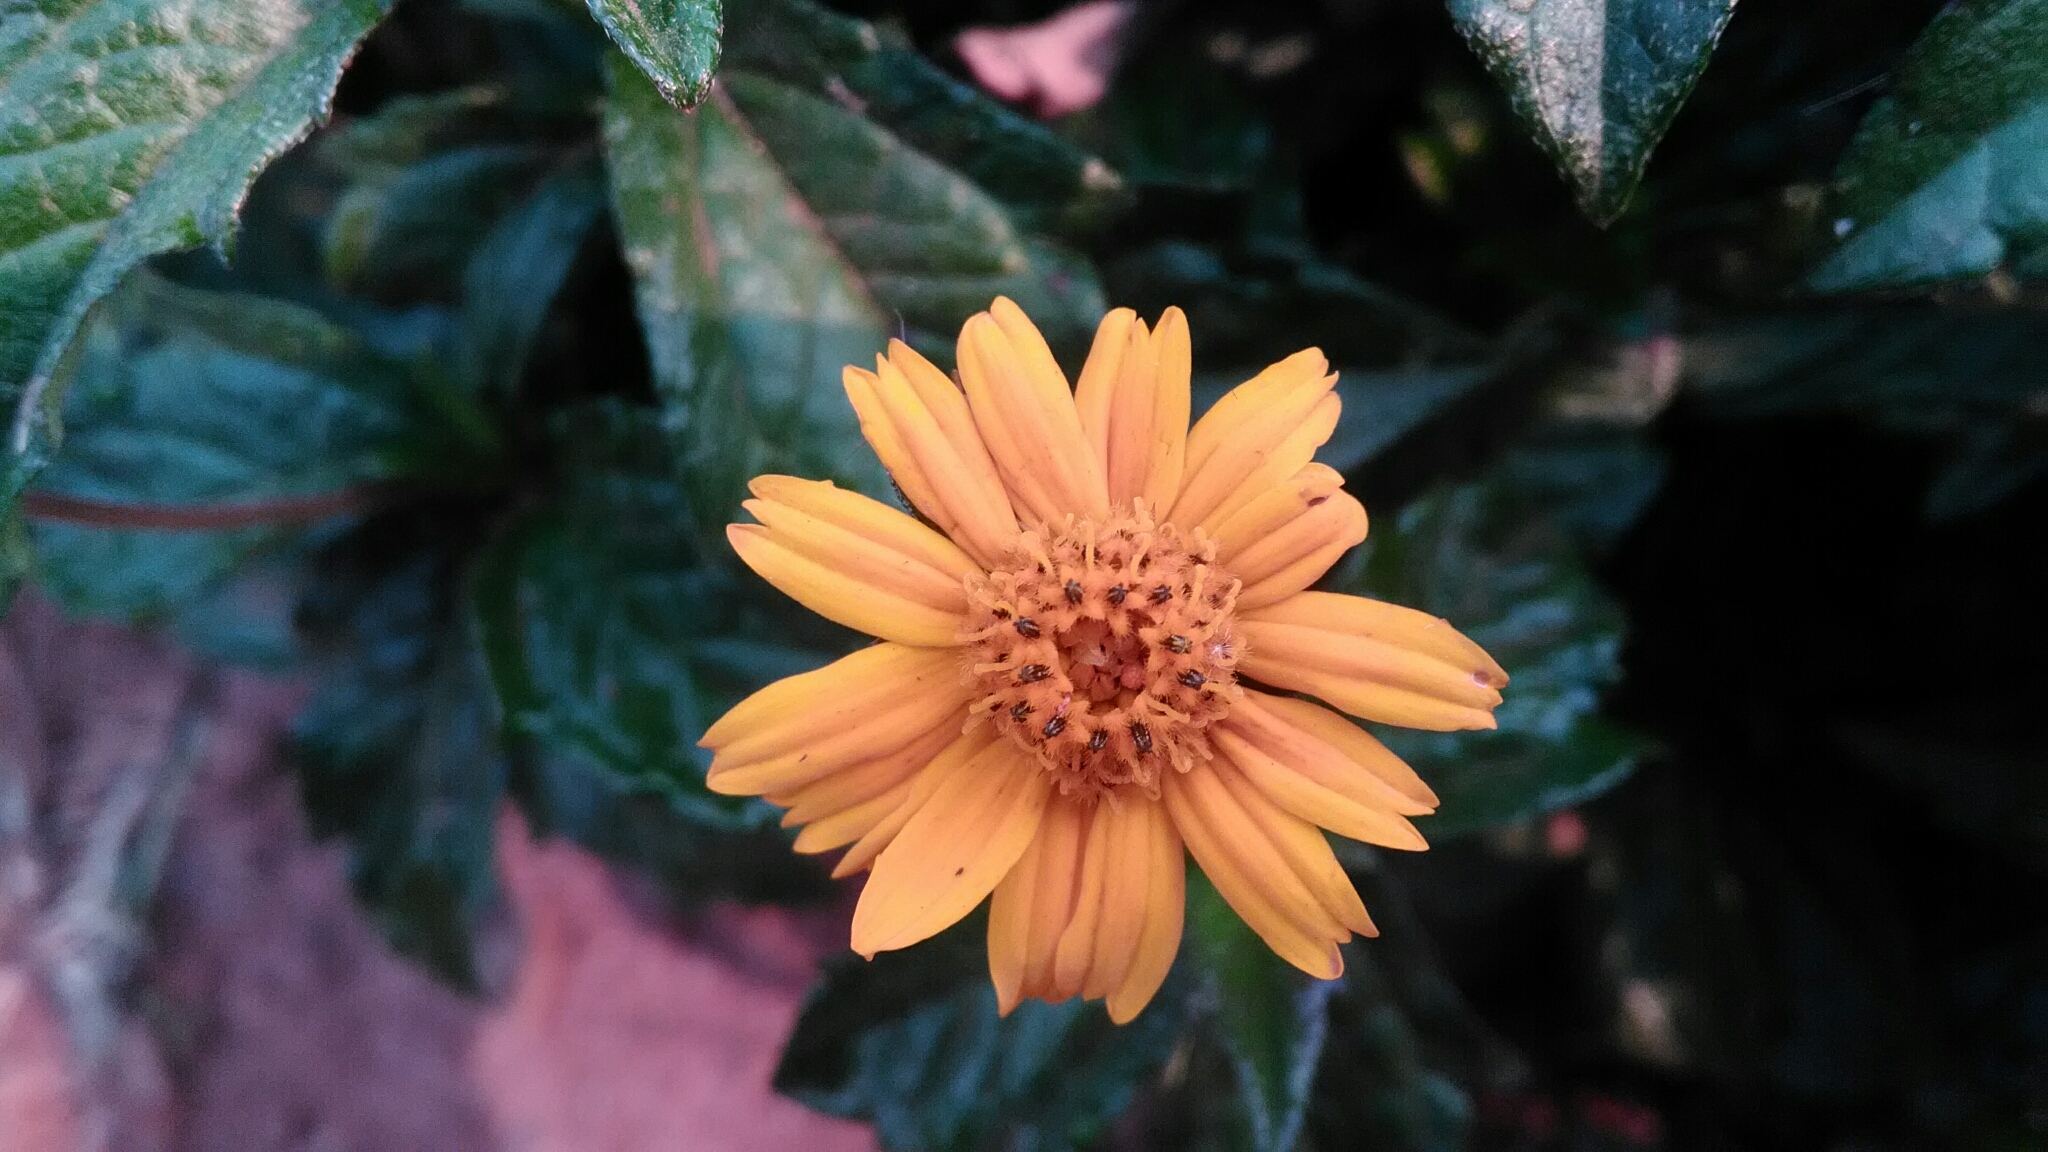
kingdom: Plantae
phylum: Tracheophyta
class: Magnoliopsida
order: Asterales
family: Asteraceae
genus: Sphagneticola
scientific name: Sphagneticola trilobata
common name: Bay biscayne creeping-oxeye
